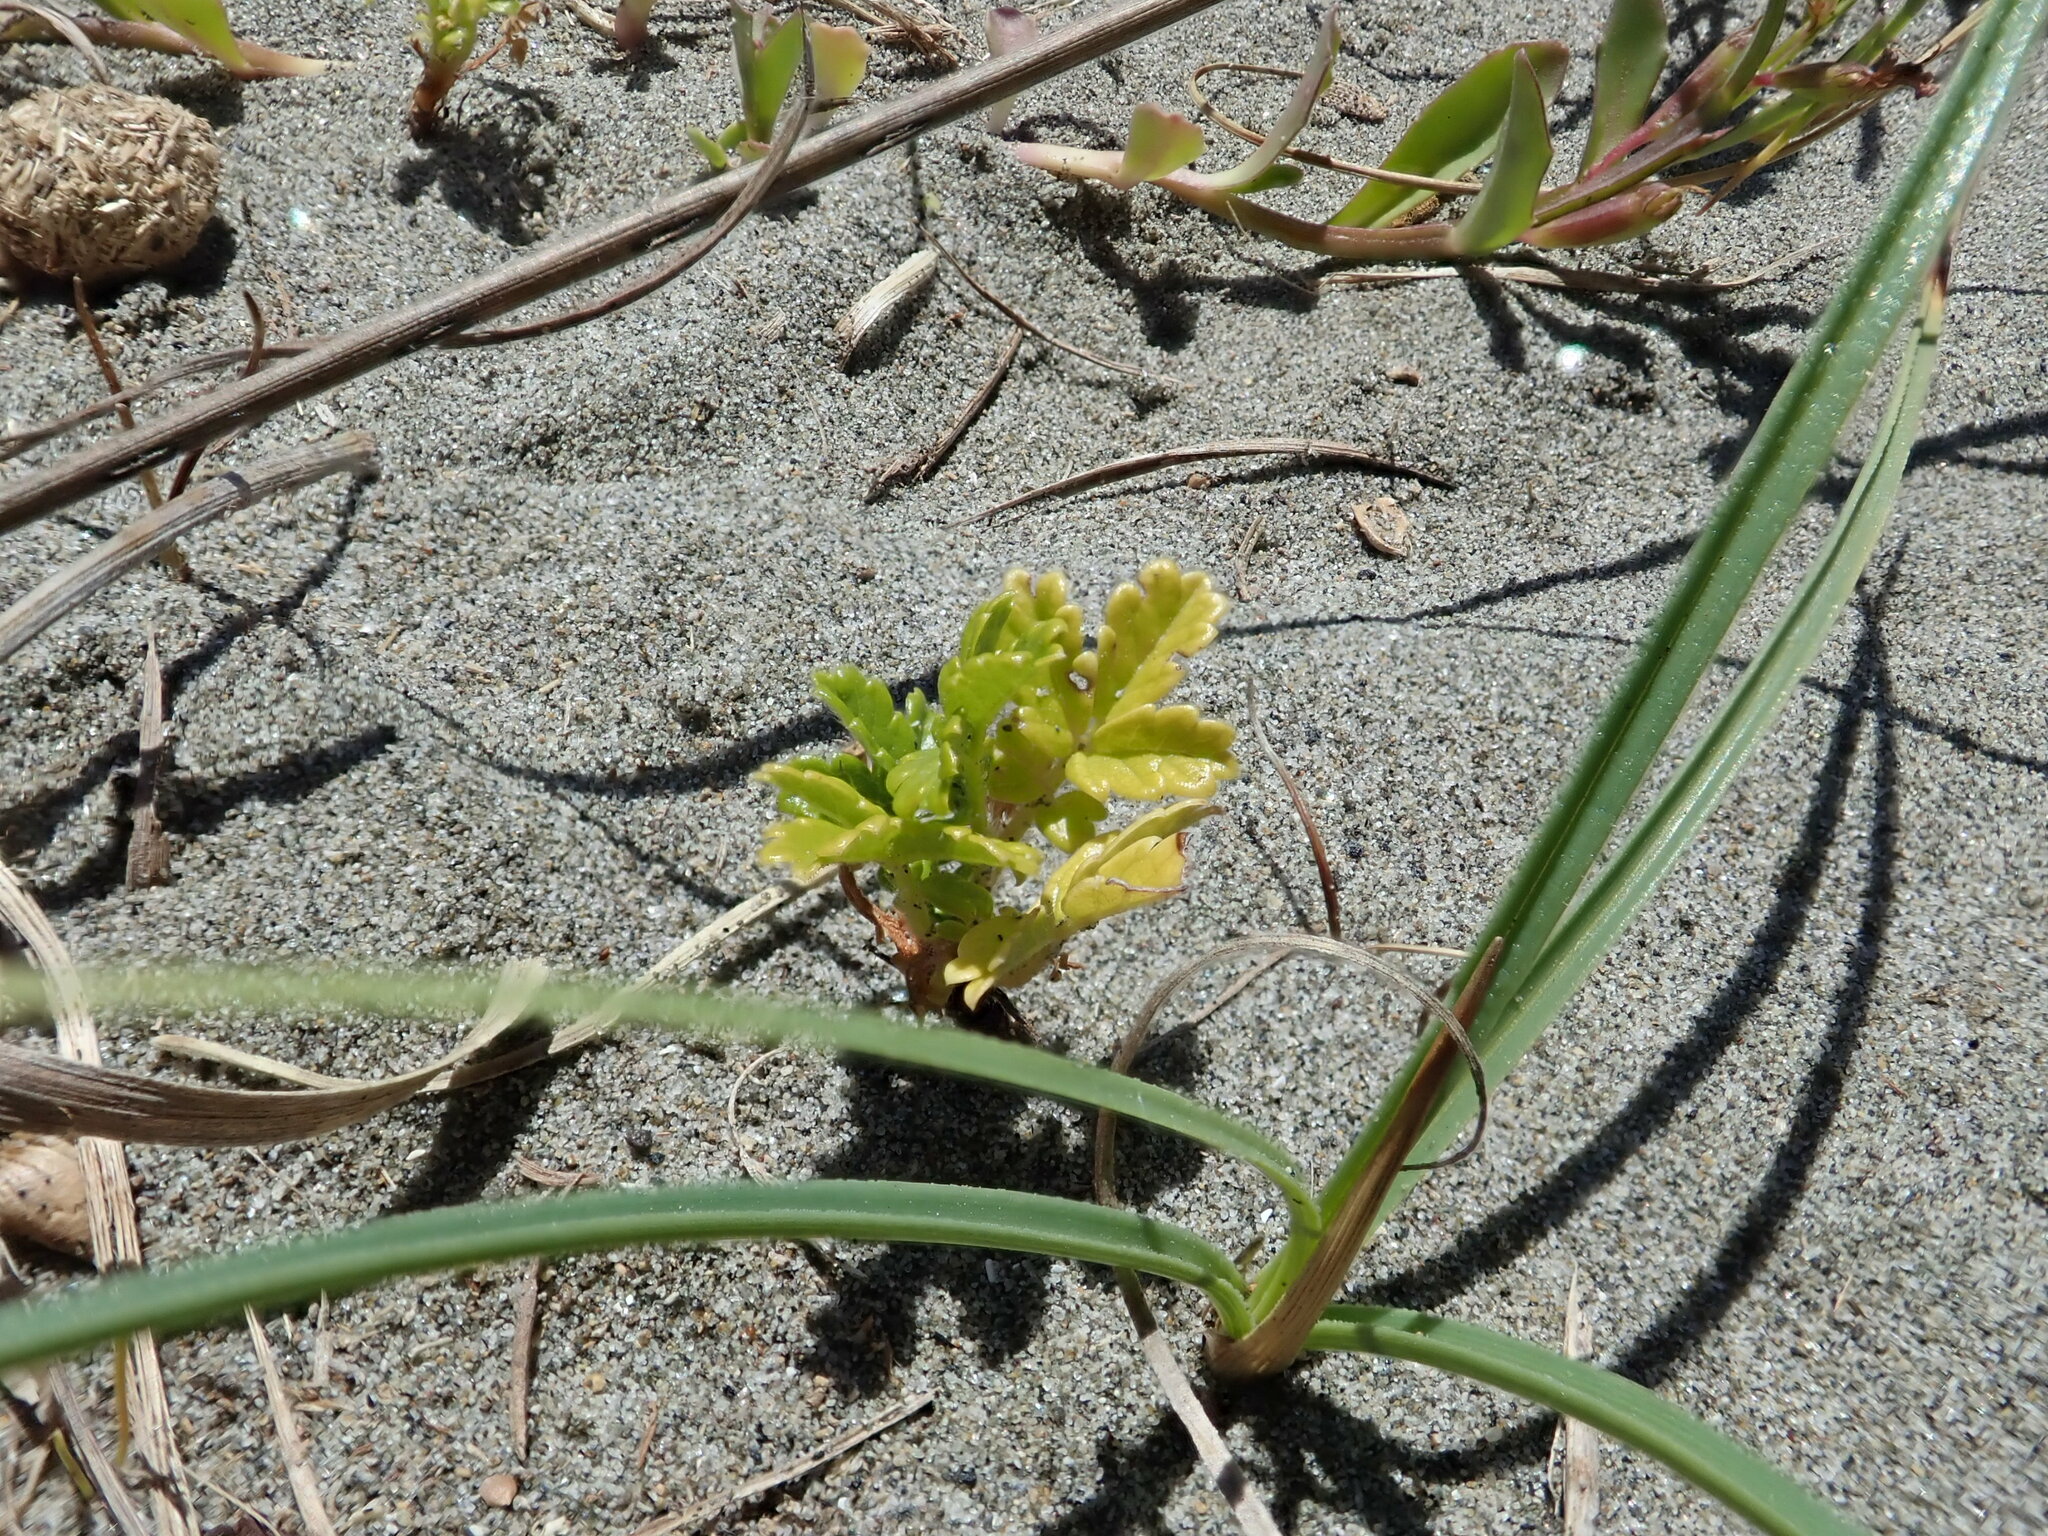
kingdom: Plantae
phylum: Tracheophyta
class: Magnoliopsida
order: Rosales
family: Rosaceae
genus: Acaena
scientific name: Acaena novae-zelandiae
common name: Pirri-pirri-bur
